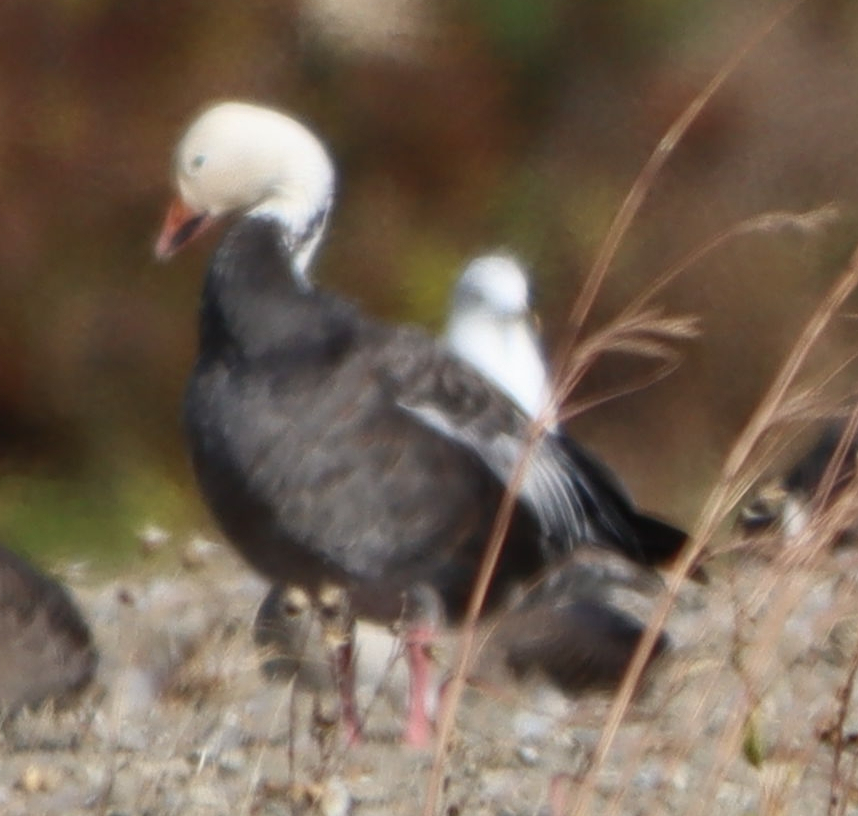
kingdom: Animalia
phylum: Chordata
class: Aves
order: Anseriformes
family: Anatidae
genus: Anser
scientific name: Anser caerulescens
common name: Snow goose
